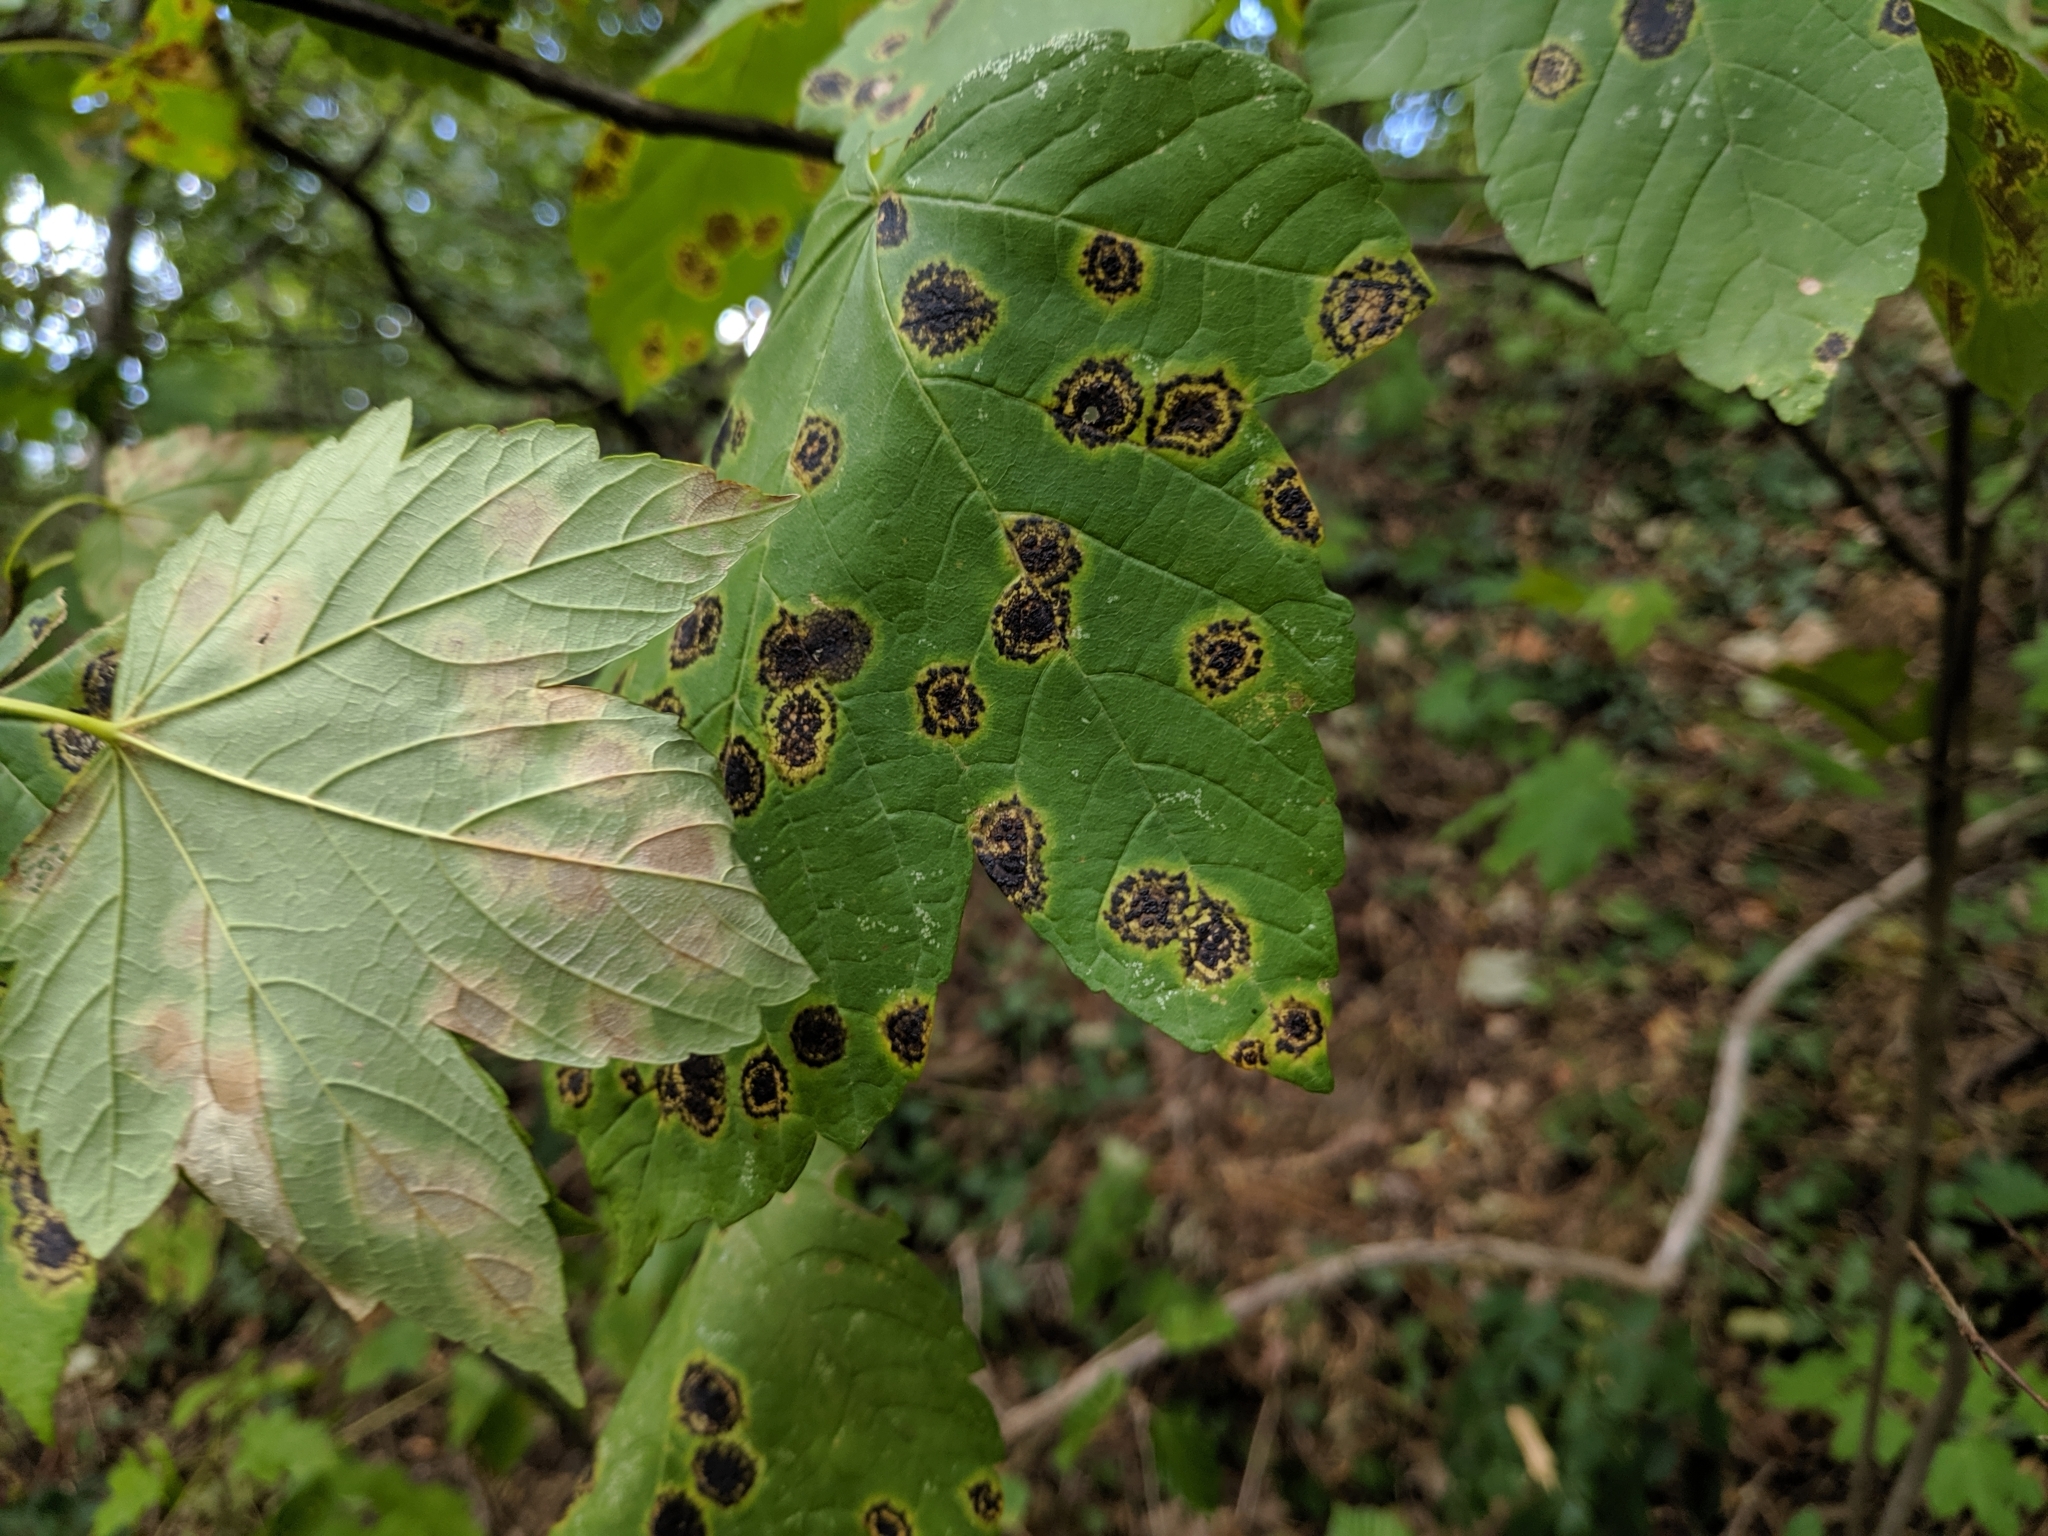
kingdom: Fungi
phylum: Ascomycota
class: Leotiomycetes
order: Rhytismatales
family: Rhytismataceae
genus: Rhytisma
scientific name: Rhytisma acerinum
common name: European tar spot
